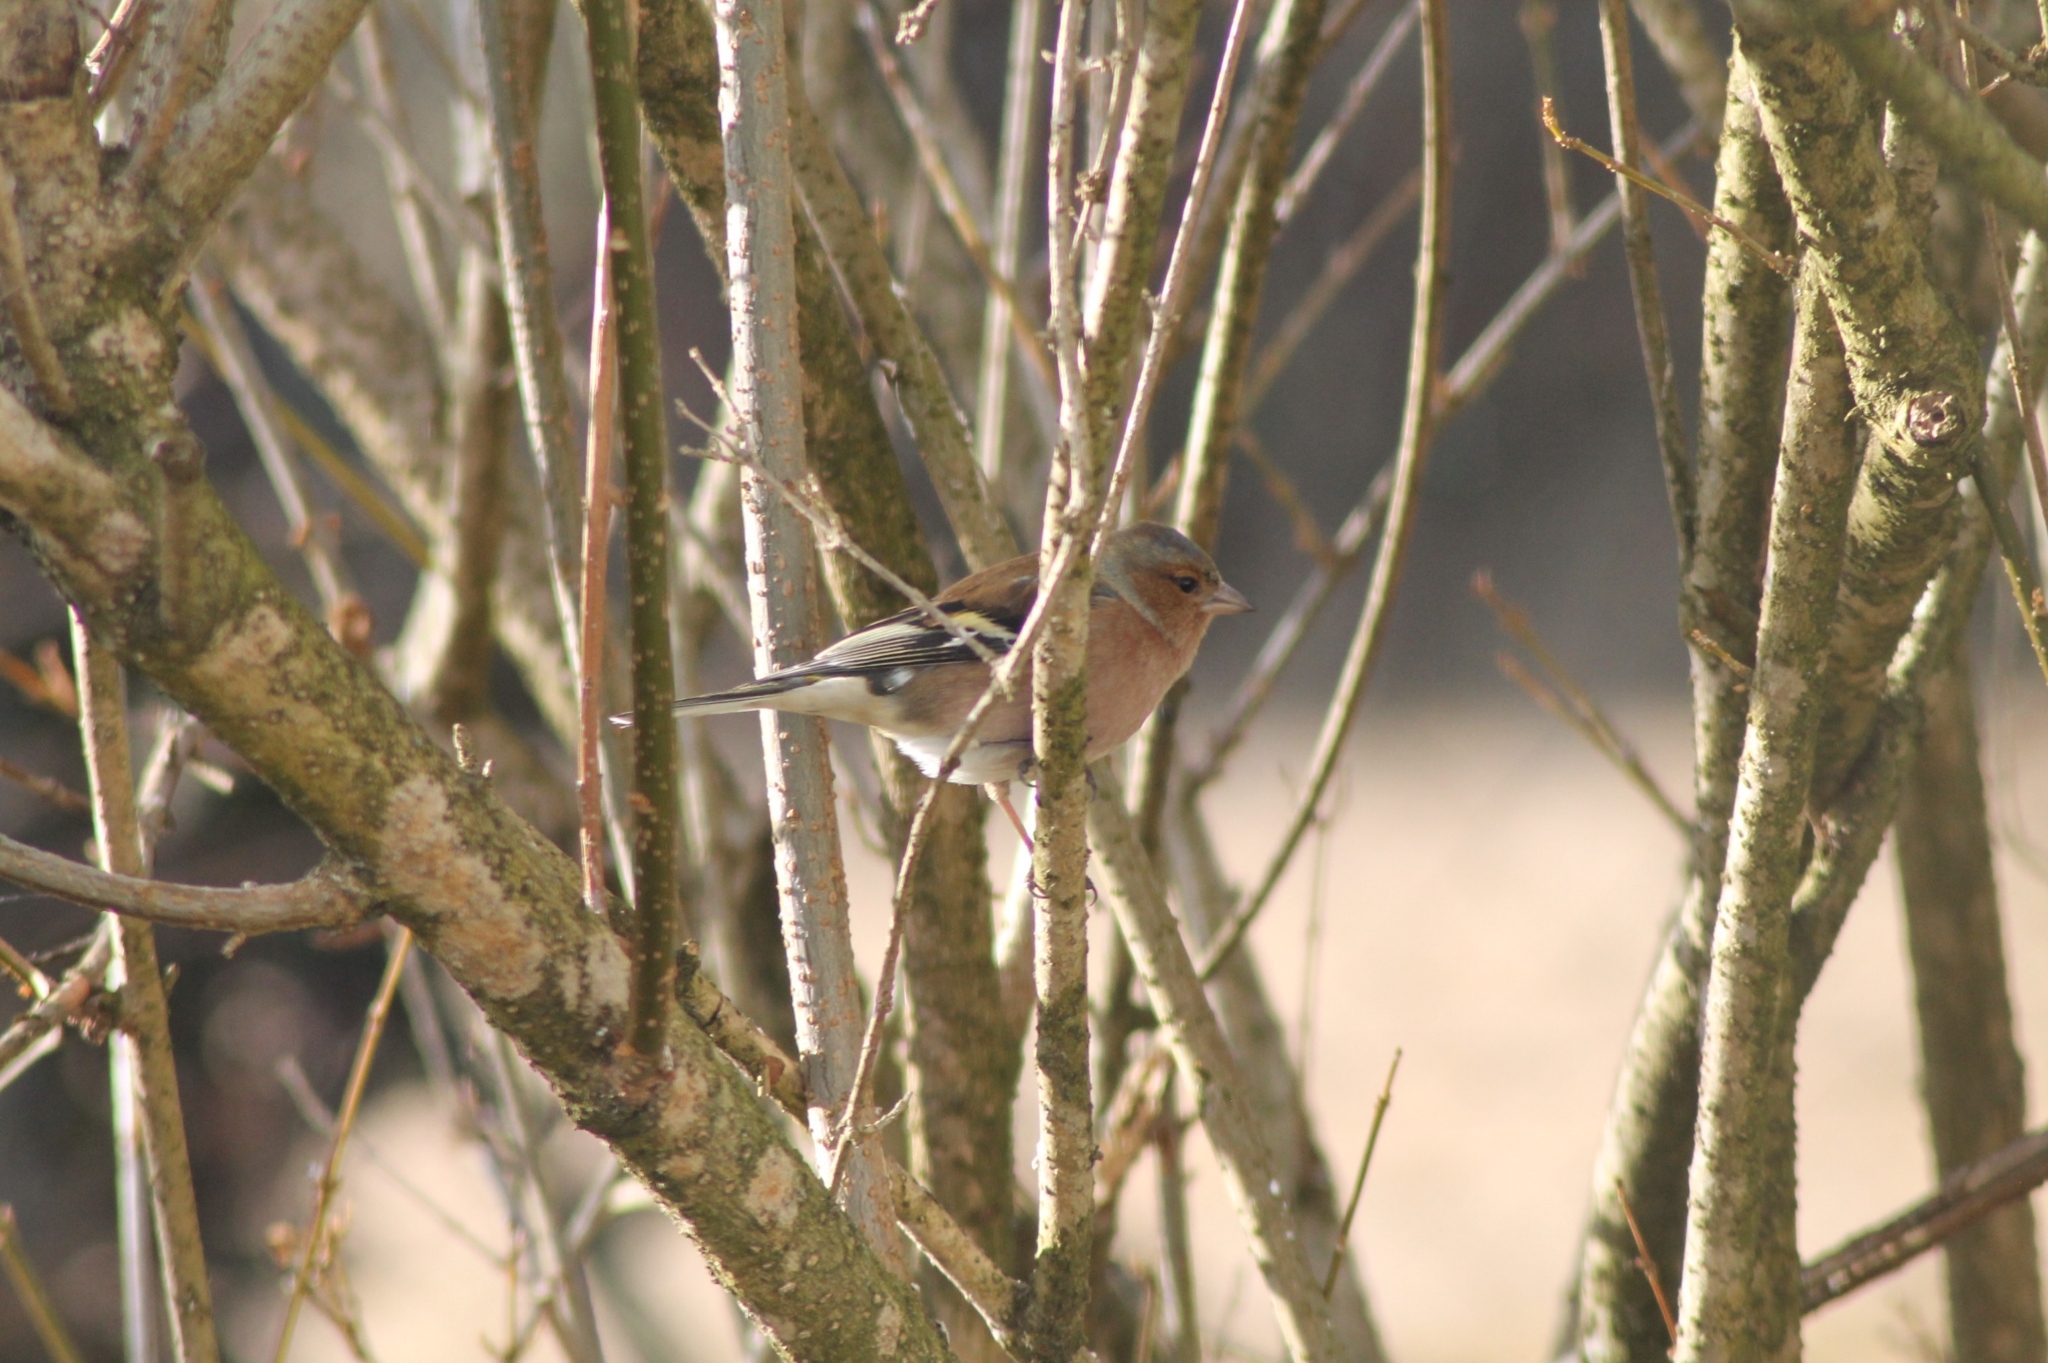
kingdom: Animalia
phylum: Chordata
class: Aves
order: Passeriformes
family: Fringillidae
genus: Fringilla
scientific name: Fringilla coelebs
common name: Common chaffinch
